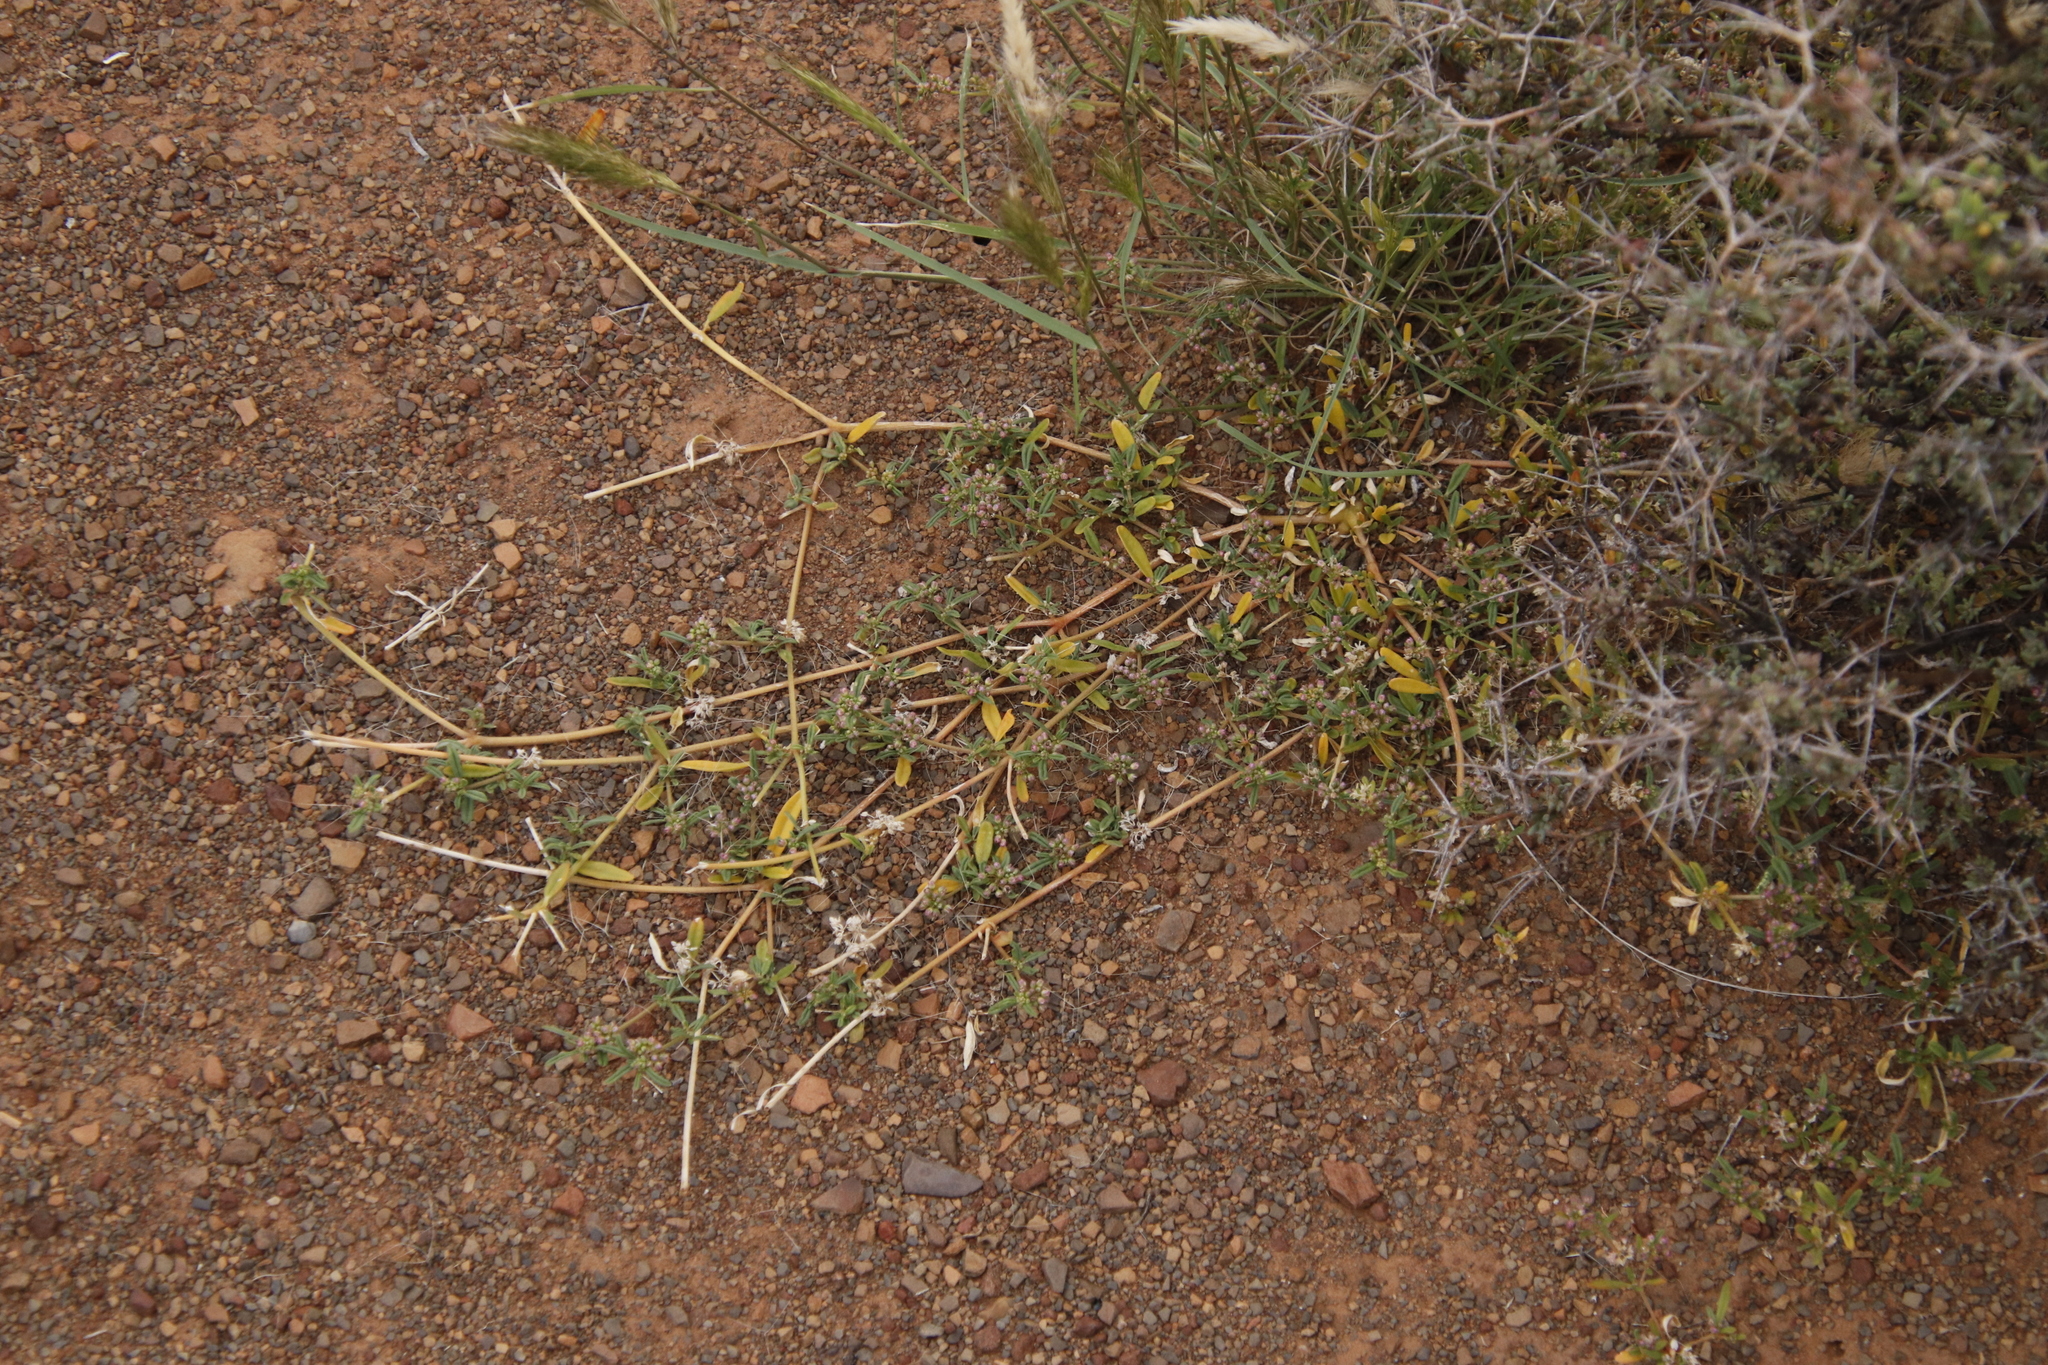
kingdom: Plantae
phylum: Tracheophyta
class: Magnoliopsida
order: Caryophyllales
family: Gisekiaceae
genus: Gisekia
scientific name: Gisekia pharnaceoides
